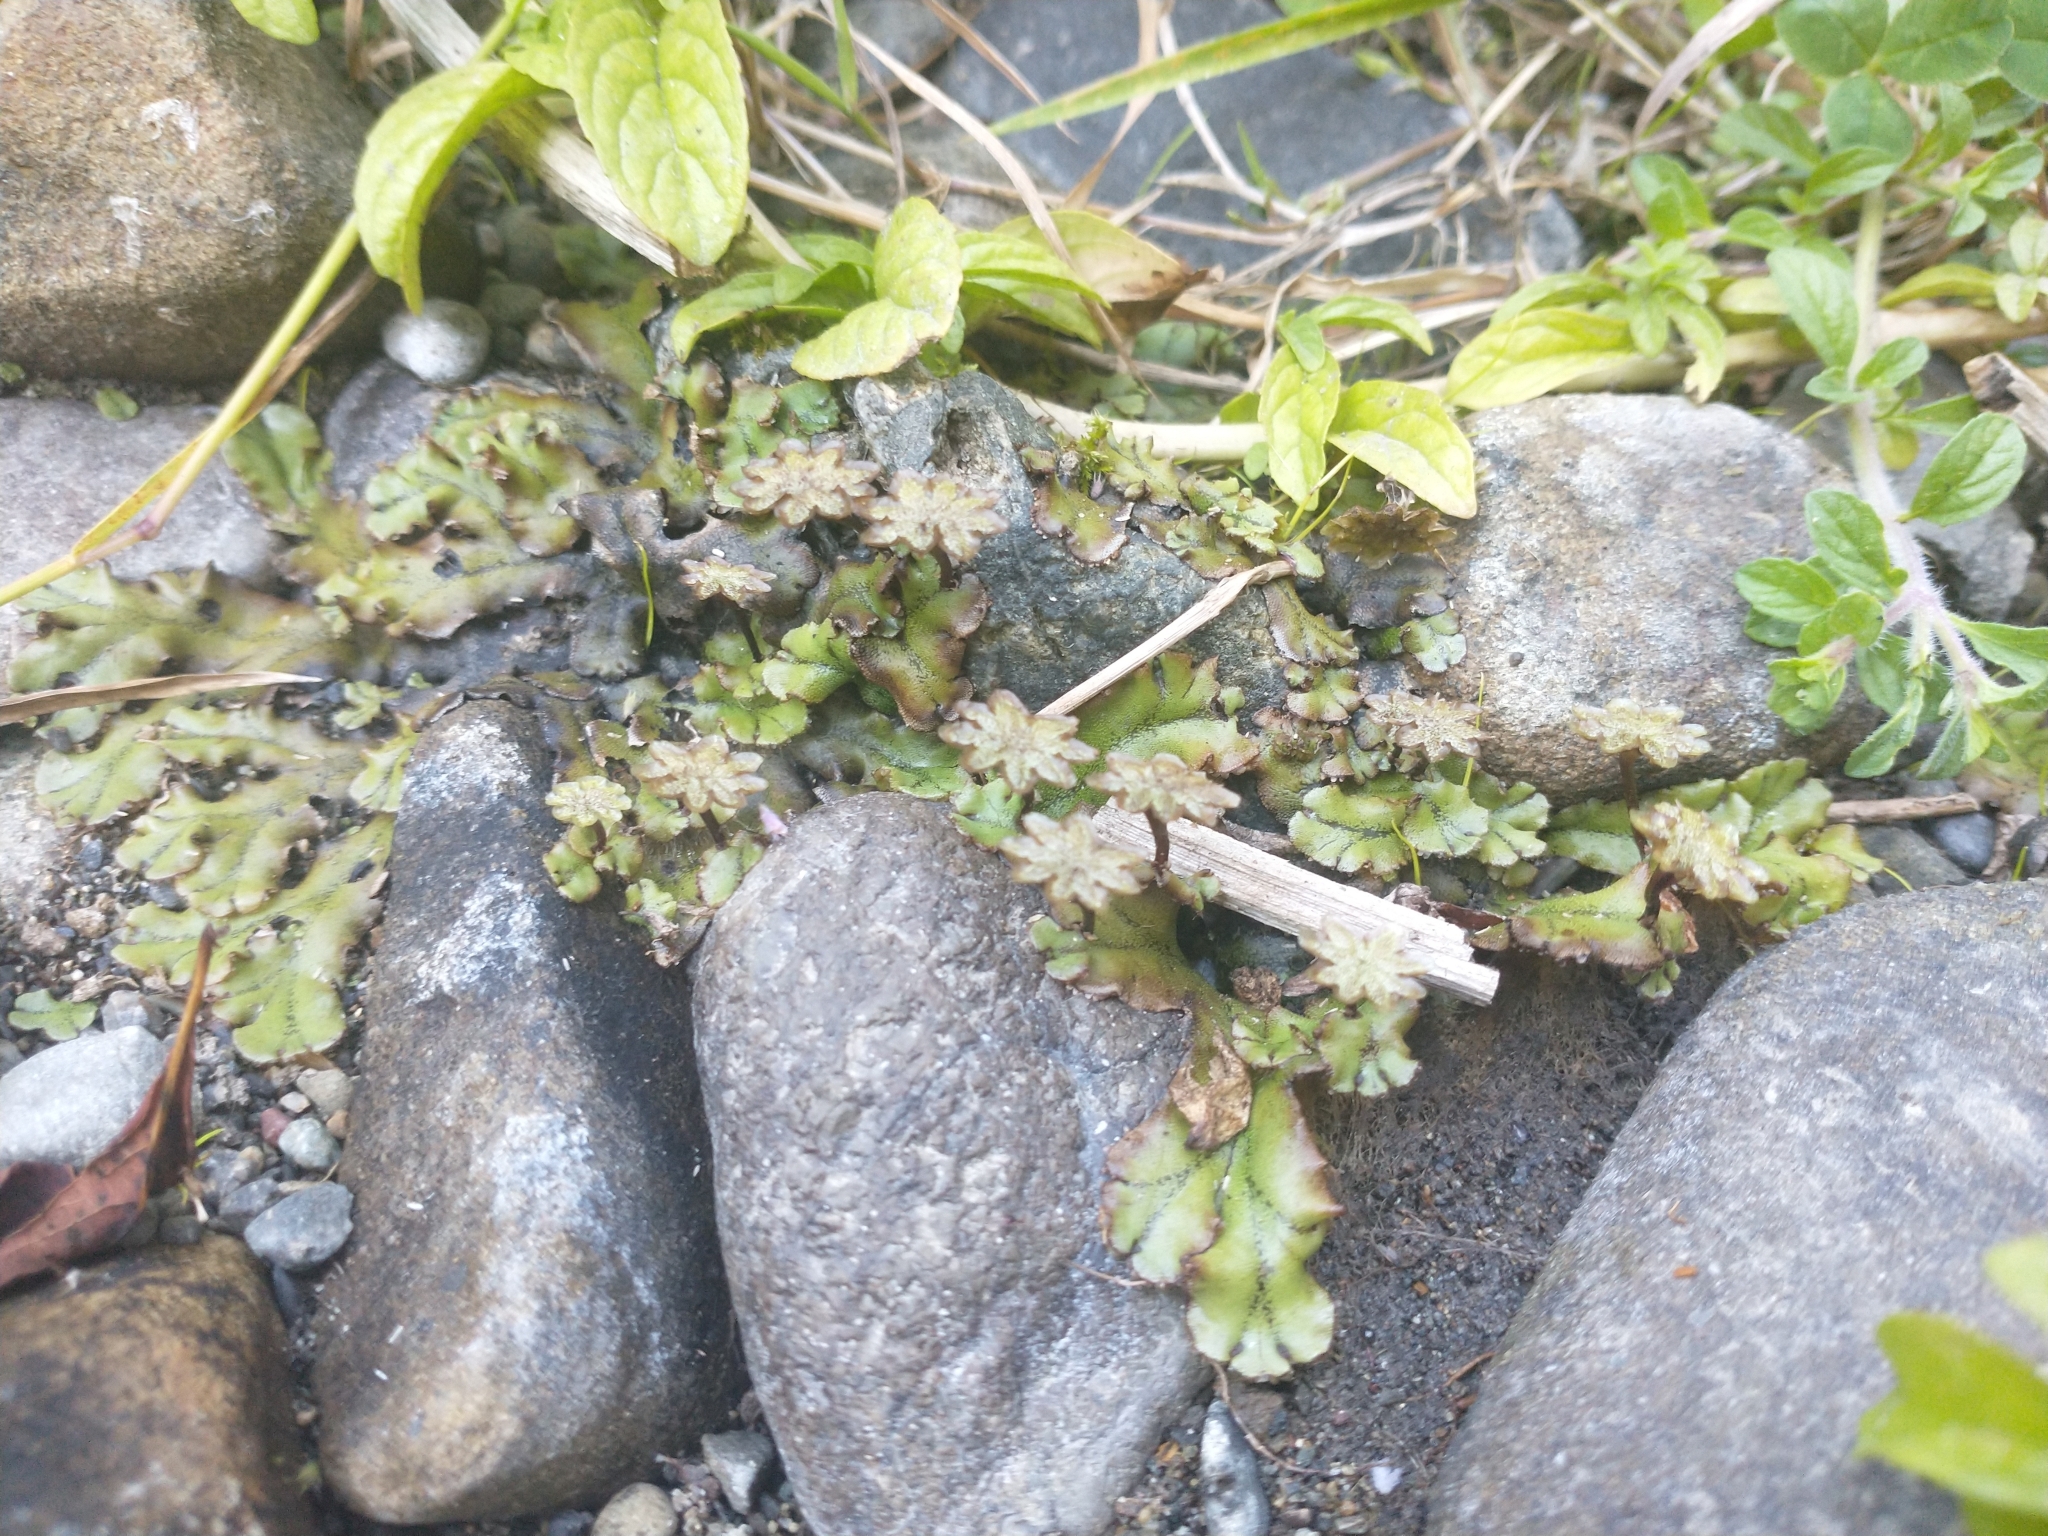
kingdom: Plantae
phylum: Marchantiophyta
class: Marchantiopsida
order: Marchantiales
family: Marchantiaceae
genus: Marchantia
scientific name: Marchantia polymorpha
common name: Common liverwort
